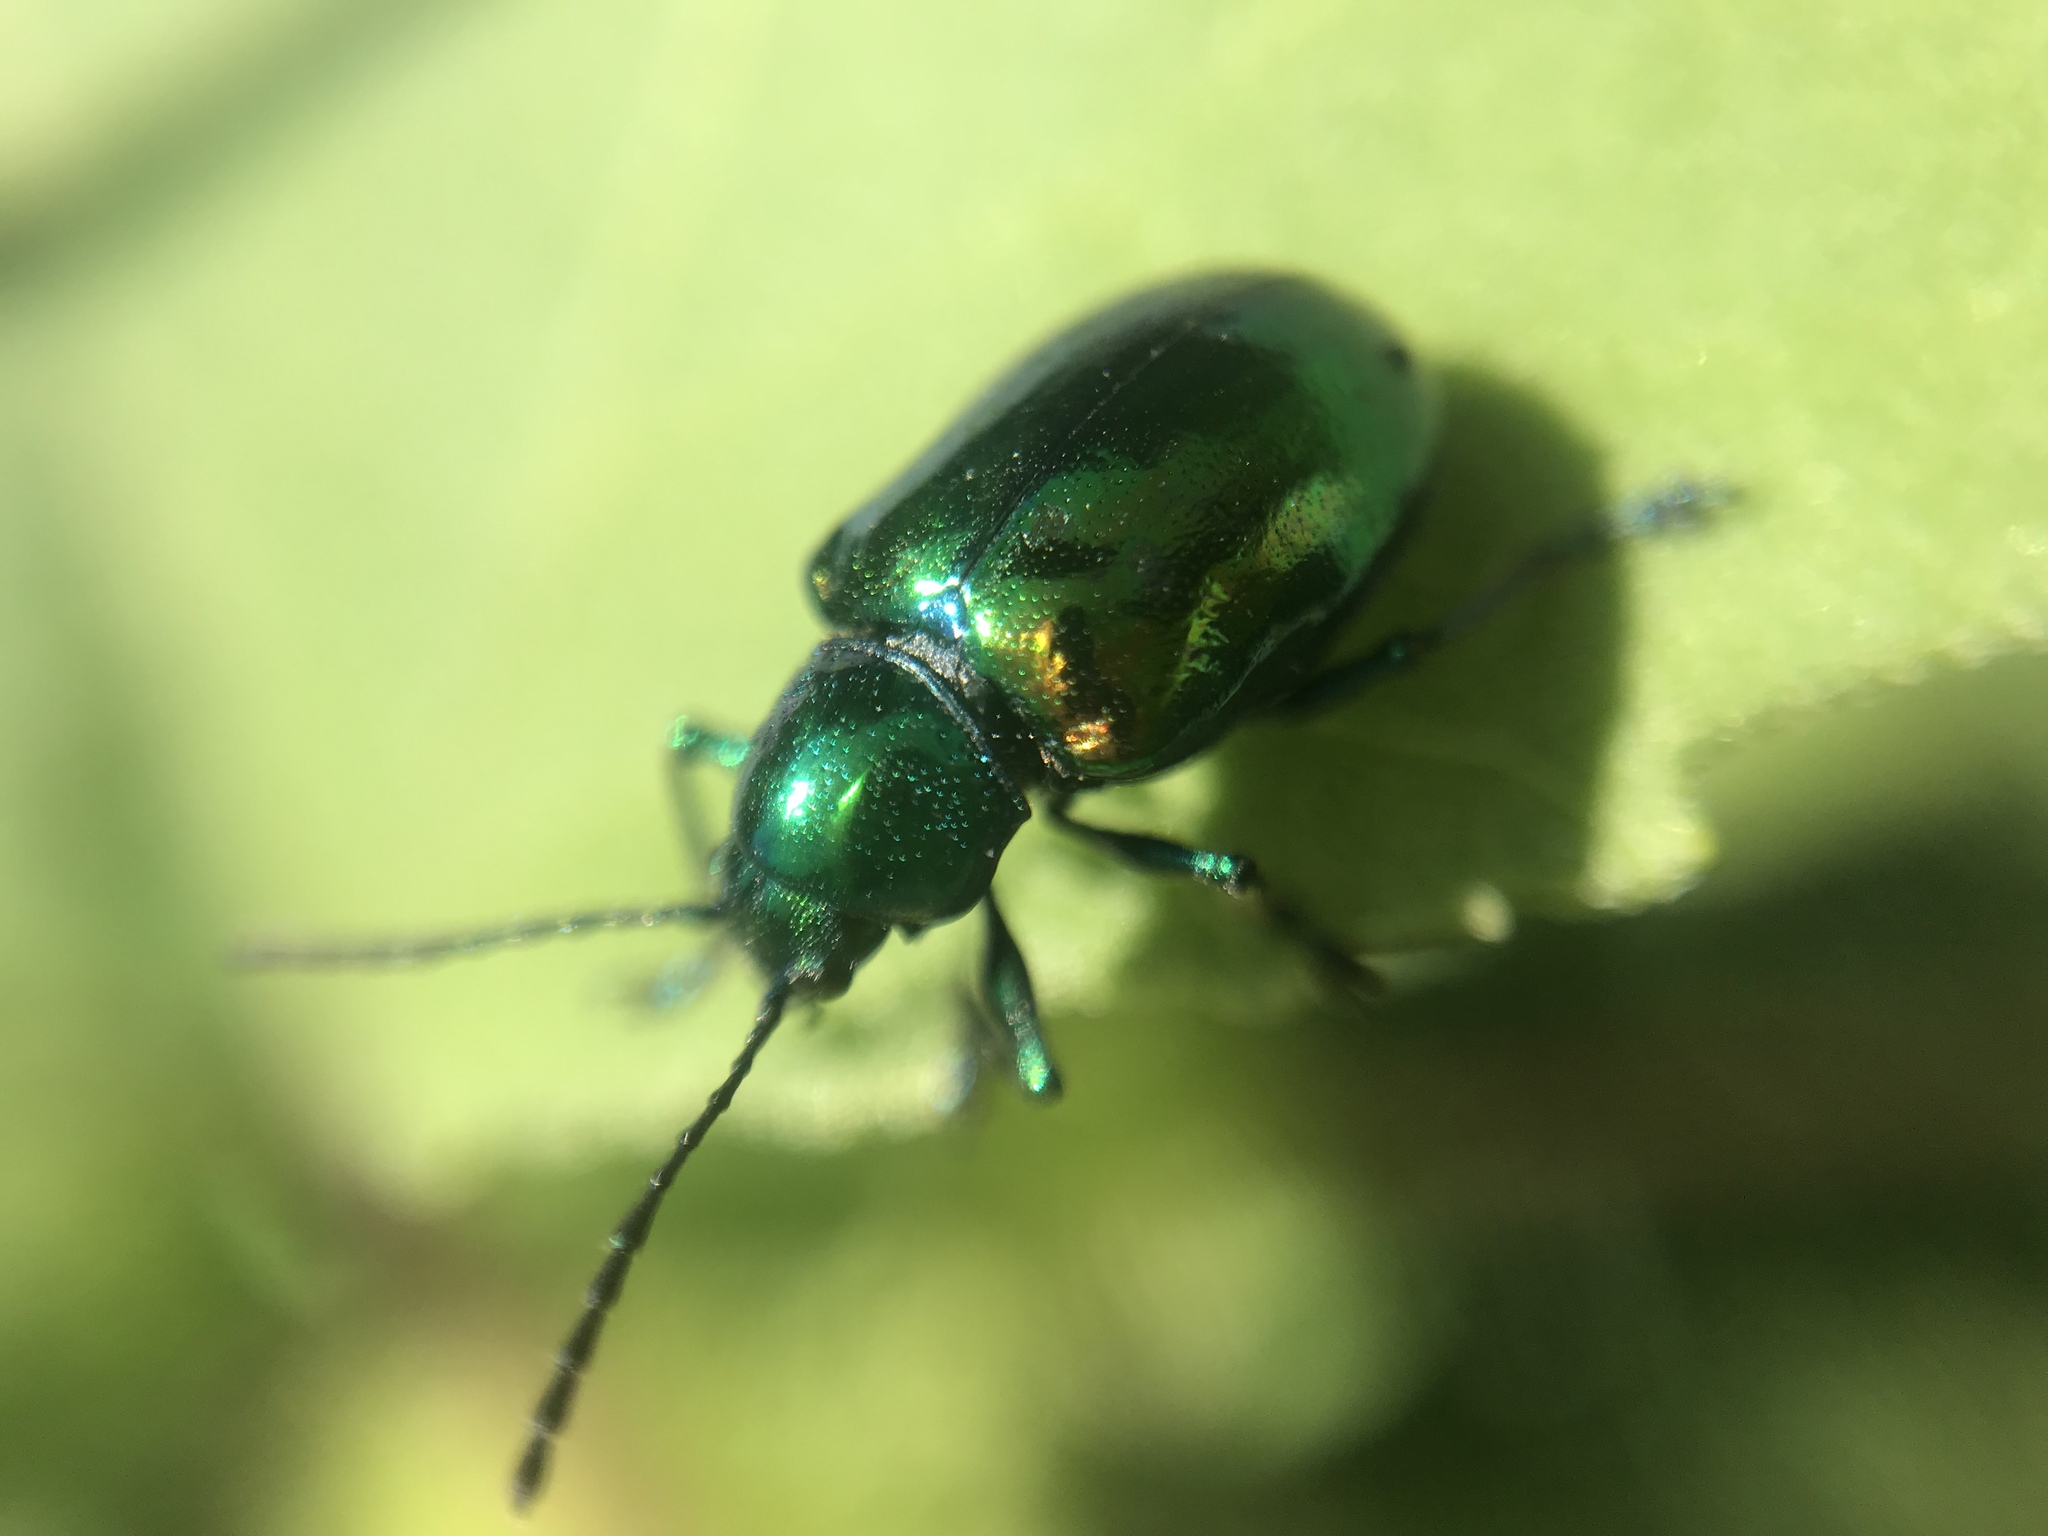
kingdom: Animalia
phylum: Arthropoda
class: Insecta
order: Coleoptera
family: Chrysomelidae
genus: Chrysochus
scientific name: Chrysochus auratus
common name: Dogbane leaf beetle
